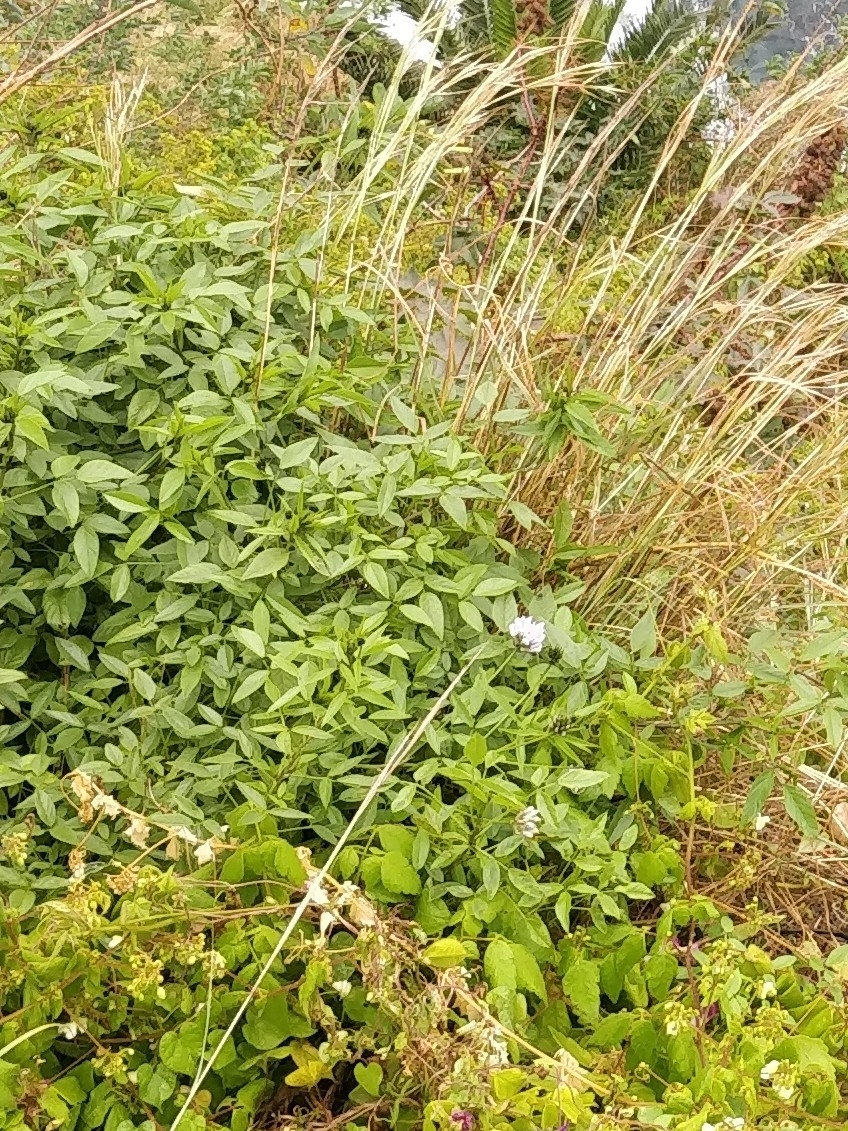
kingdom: Plantae
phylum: Tracheophyta
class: Magnoliopsida
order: Fabales
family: Fabaceae
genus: Bituminaria
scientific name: Bituminaria bituminosa
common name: Arabian pea
